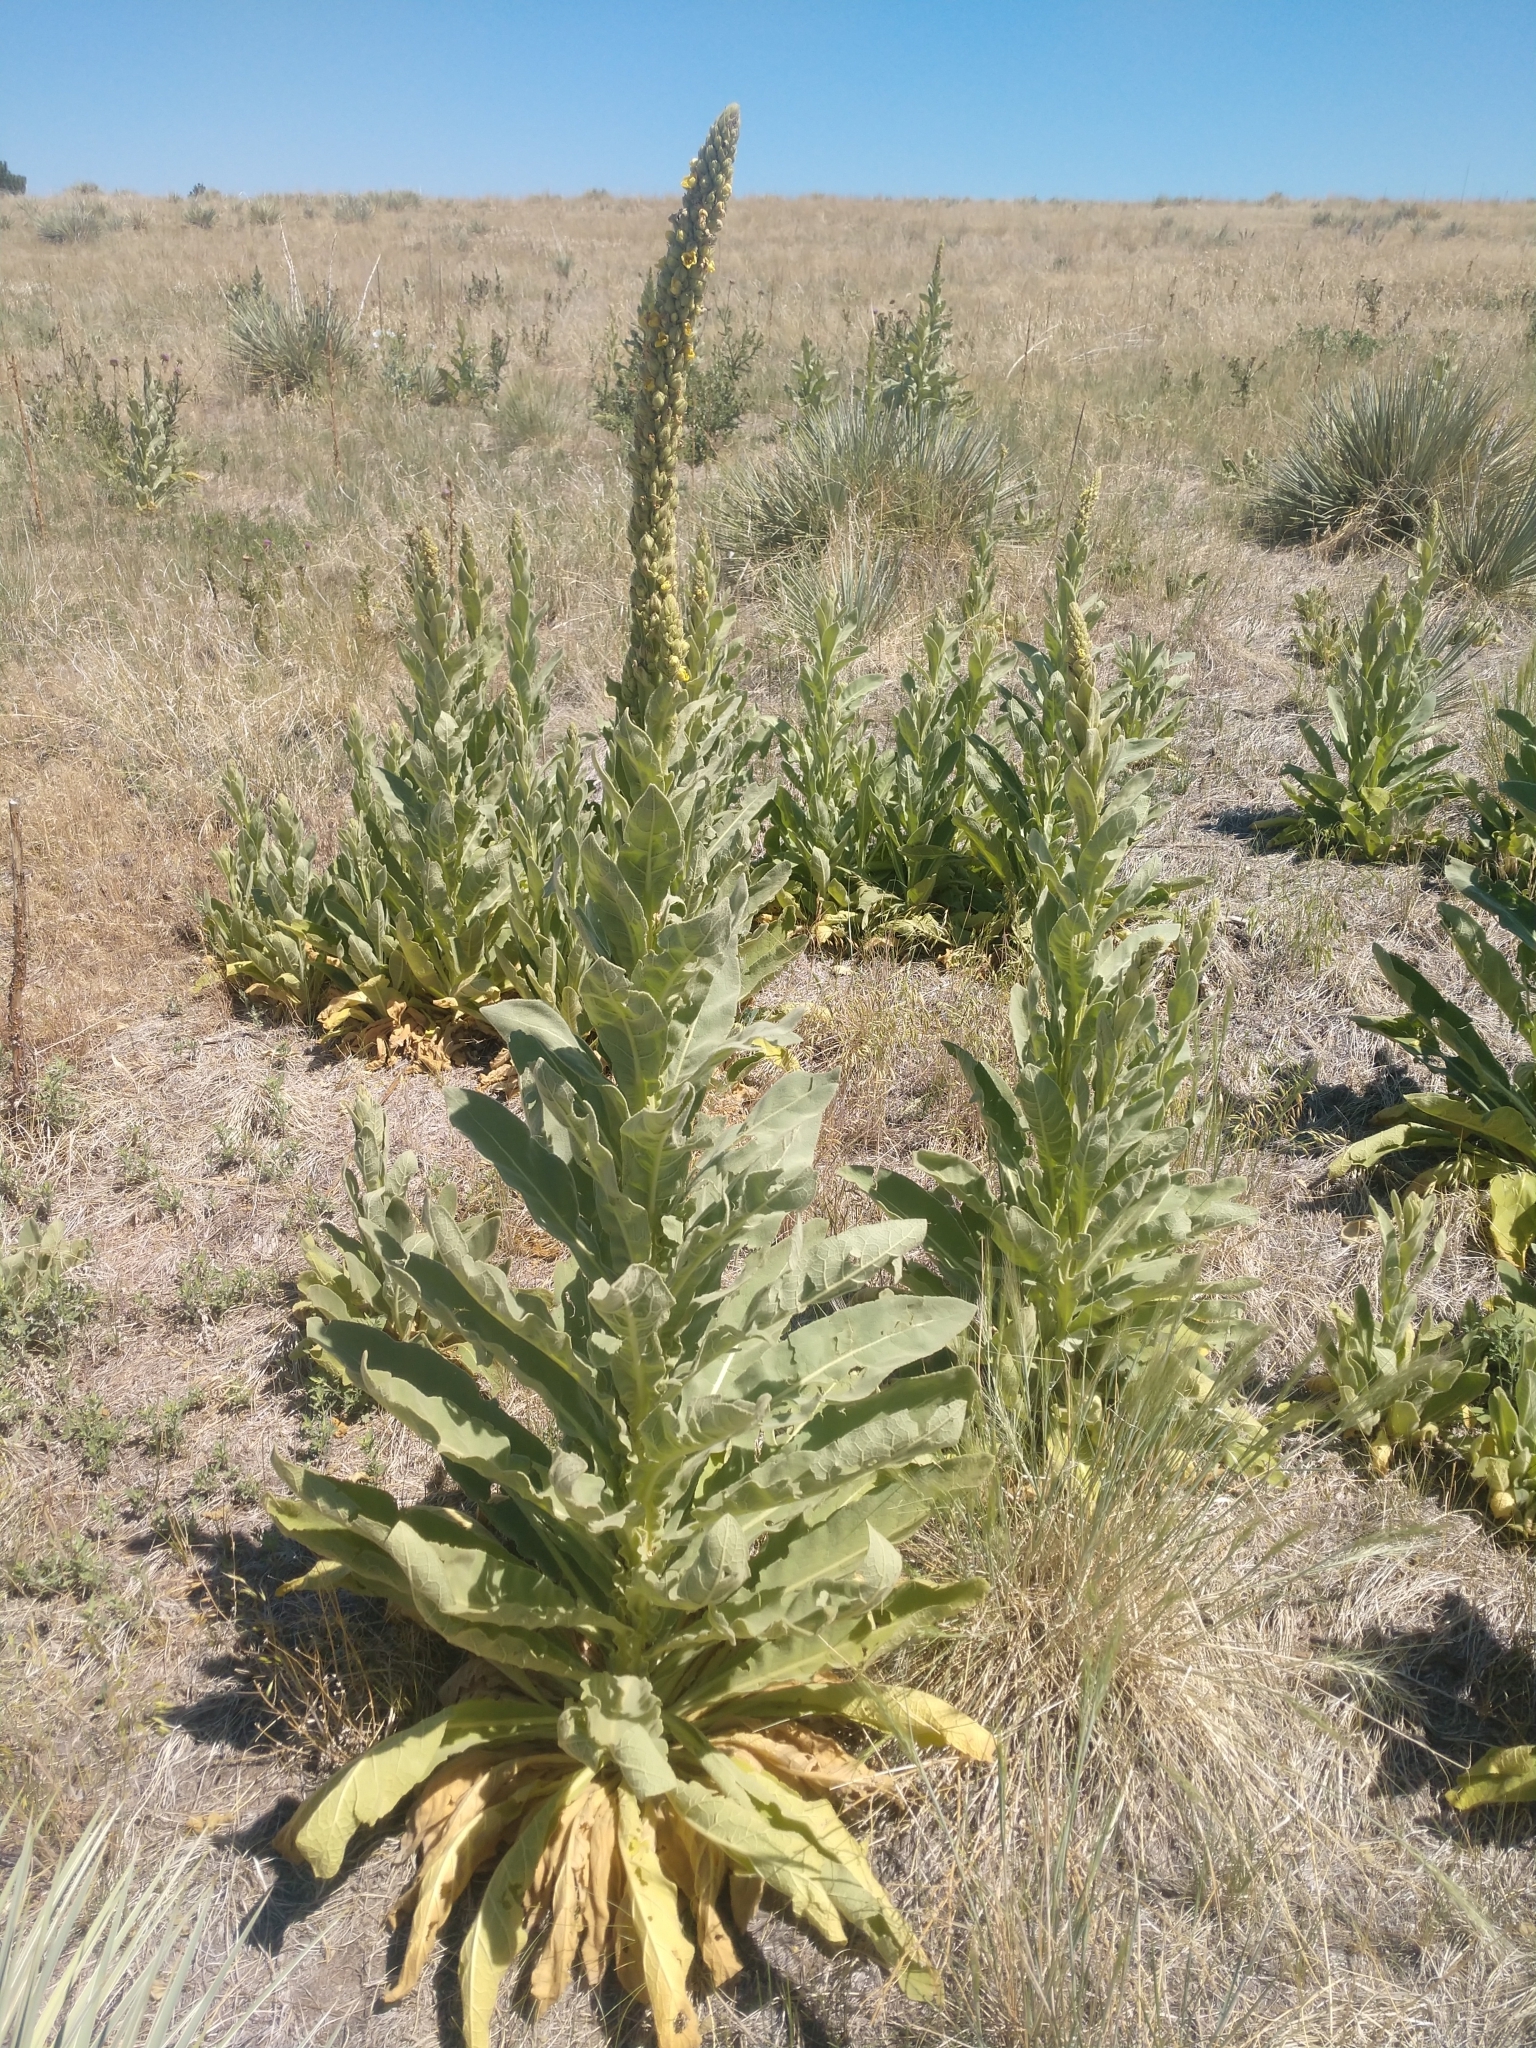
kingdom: Plantae
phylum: Tracheophyta
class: Magnoliopsida
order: Lamiales
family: Scrophulariaceae
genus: Verbascum
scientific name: Verbascum thapsus
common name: Common mullein
